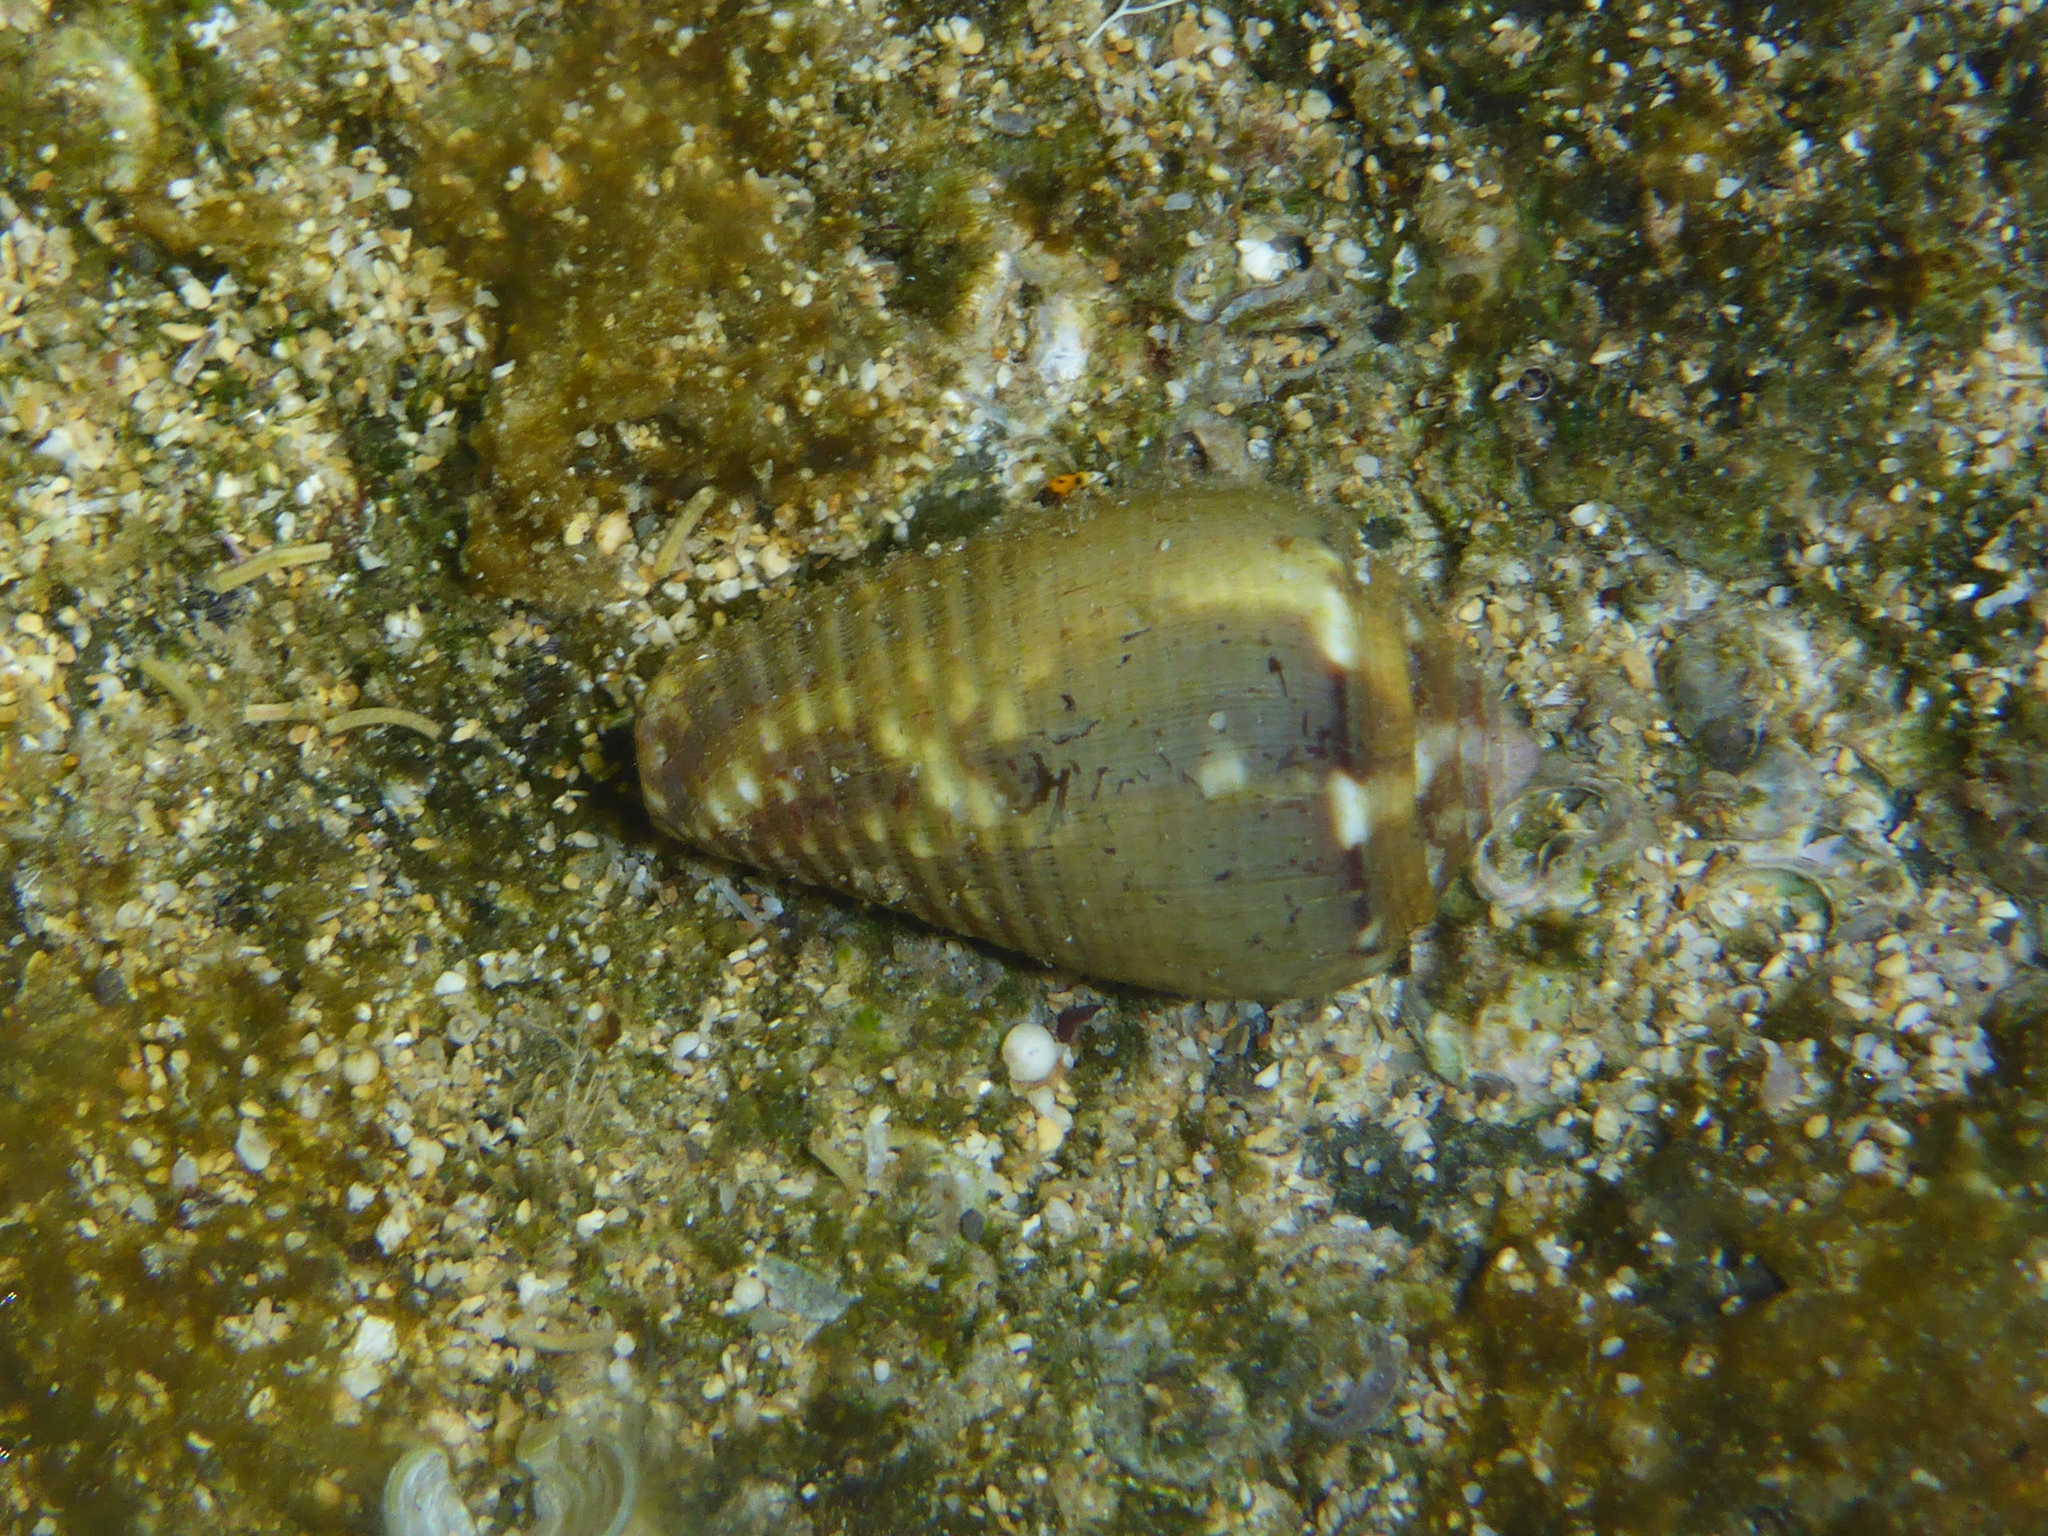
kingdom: Animalia
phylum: Mollusca
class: Gastropoda
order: Neogastropoda
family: Conidae
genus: Conus
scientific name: Conus catus
